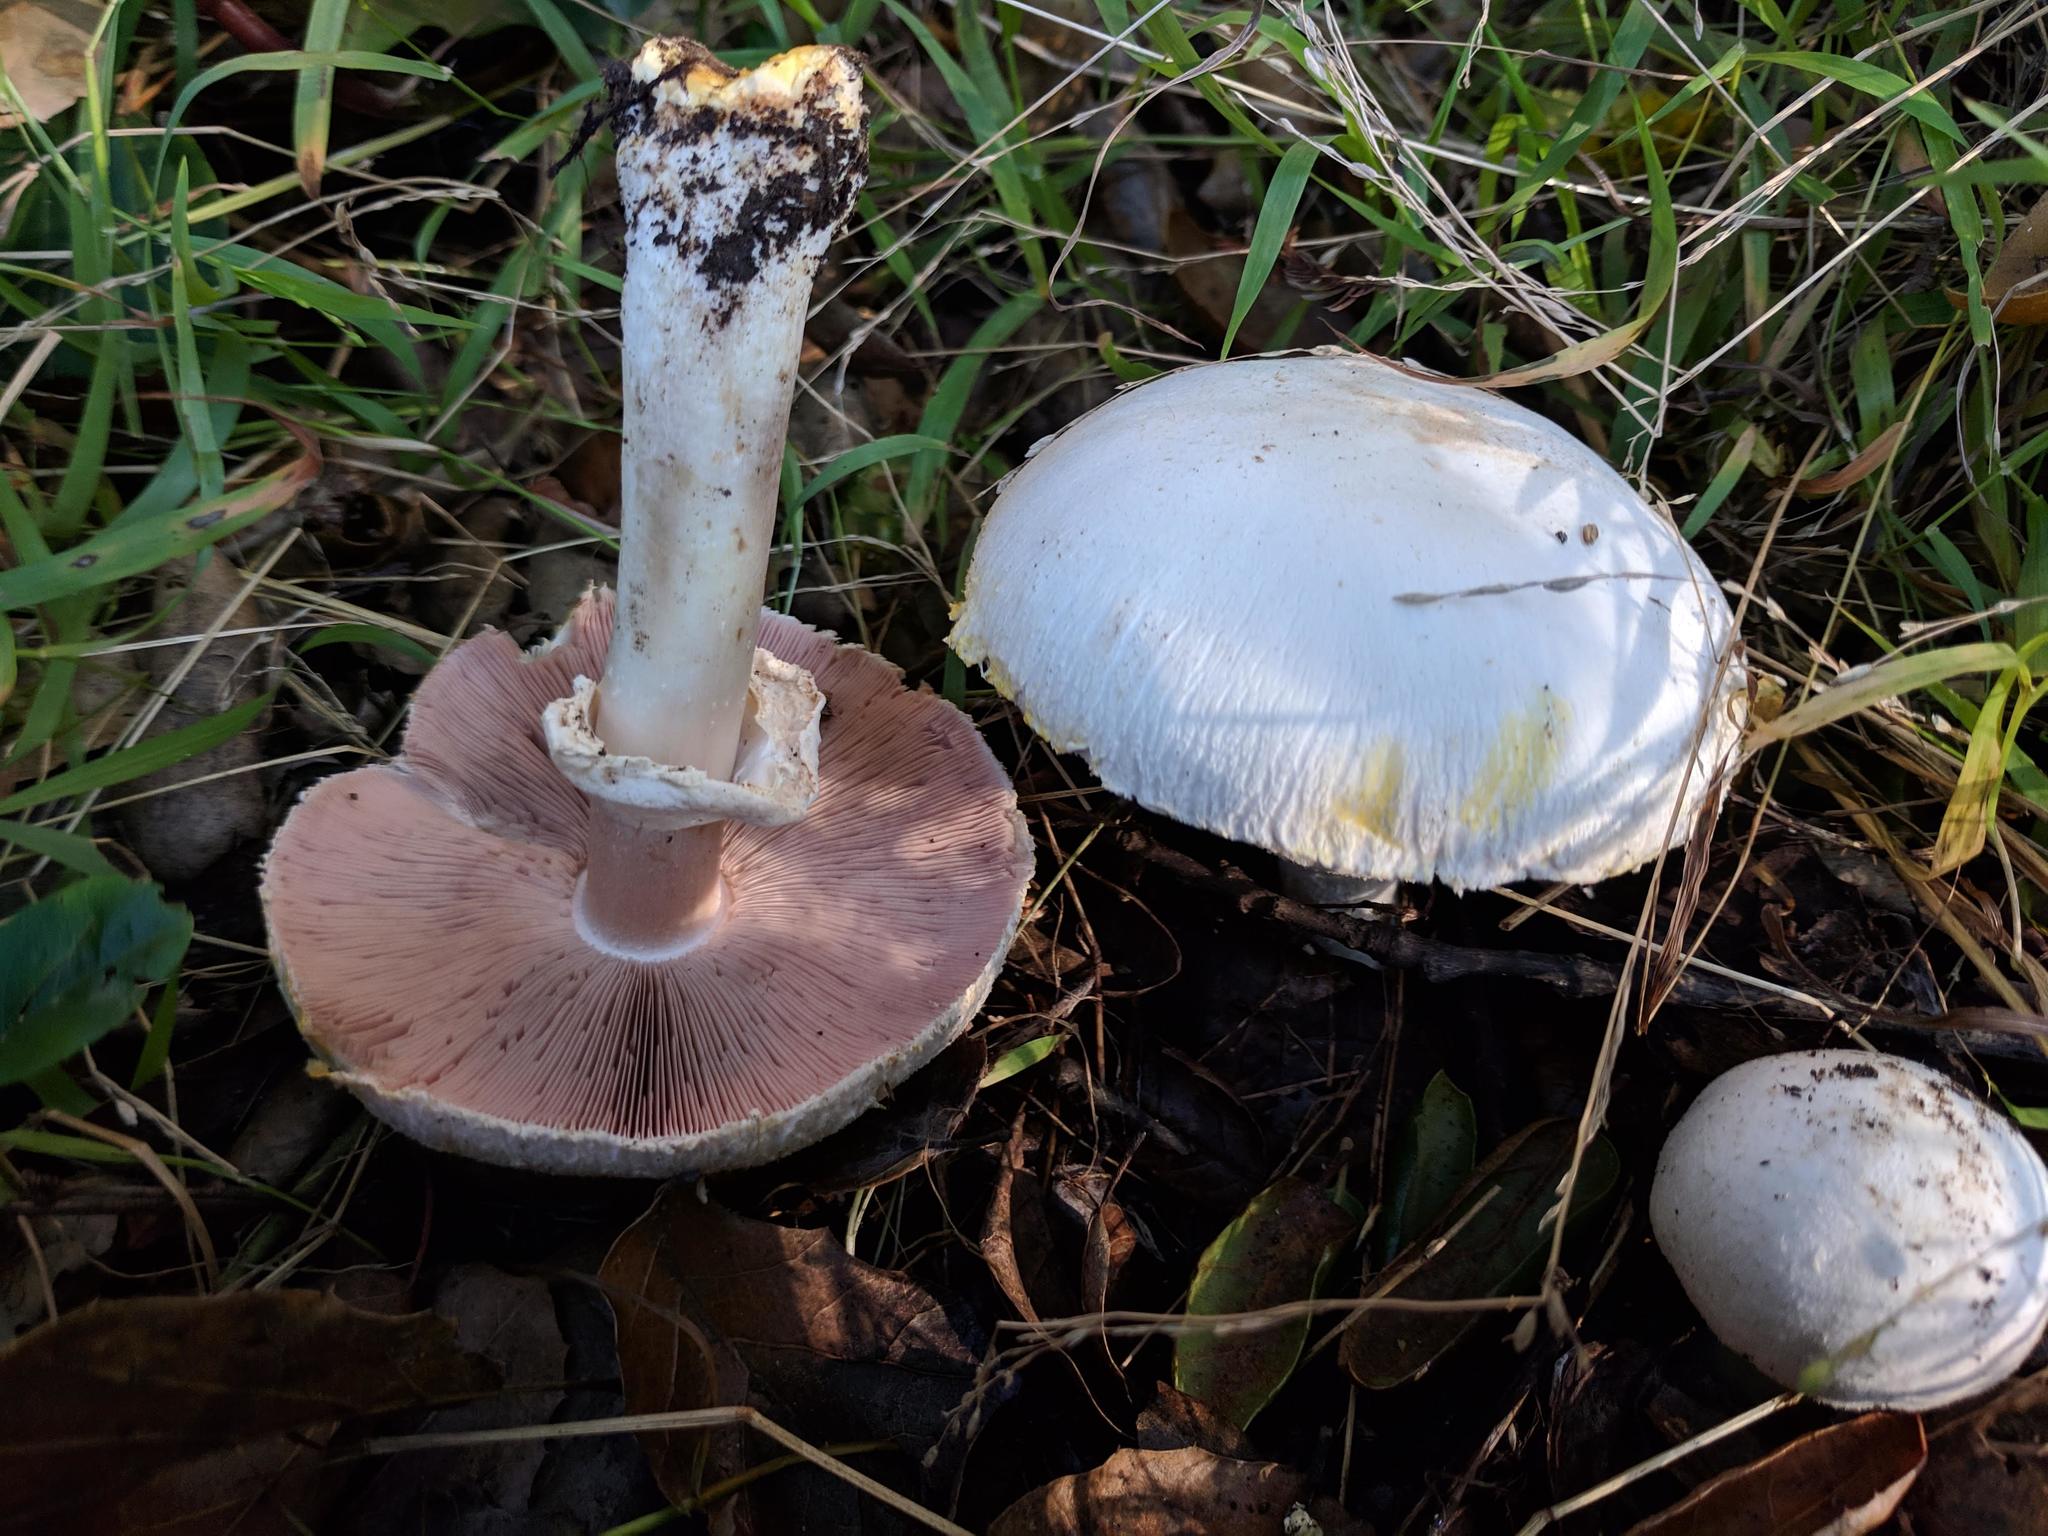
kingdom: Fungi
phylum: Basidiomycota
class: Agaricomycetes
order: Agaricales
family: Agaricaceae
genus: Agaricus
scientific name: Agaricus xanthodermus
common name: Yellow stainer
